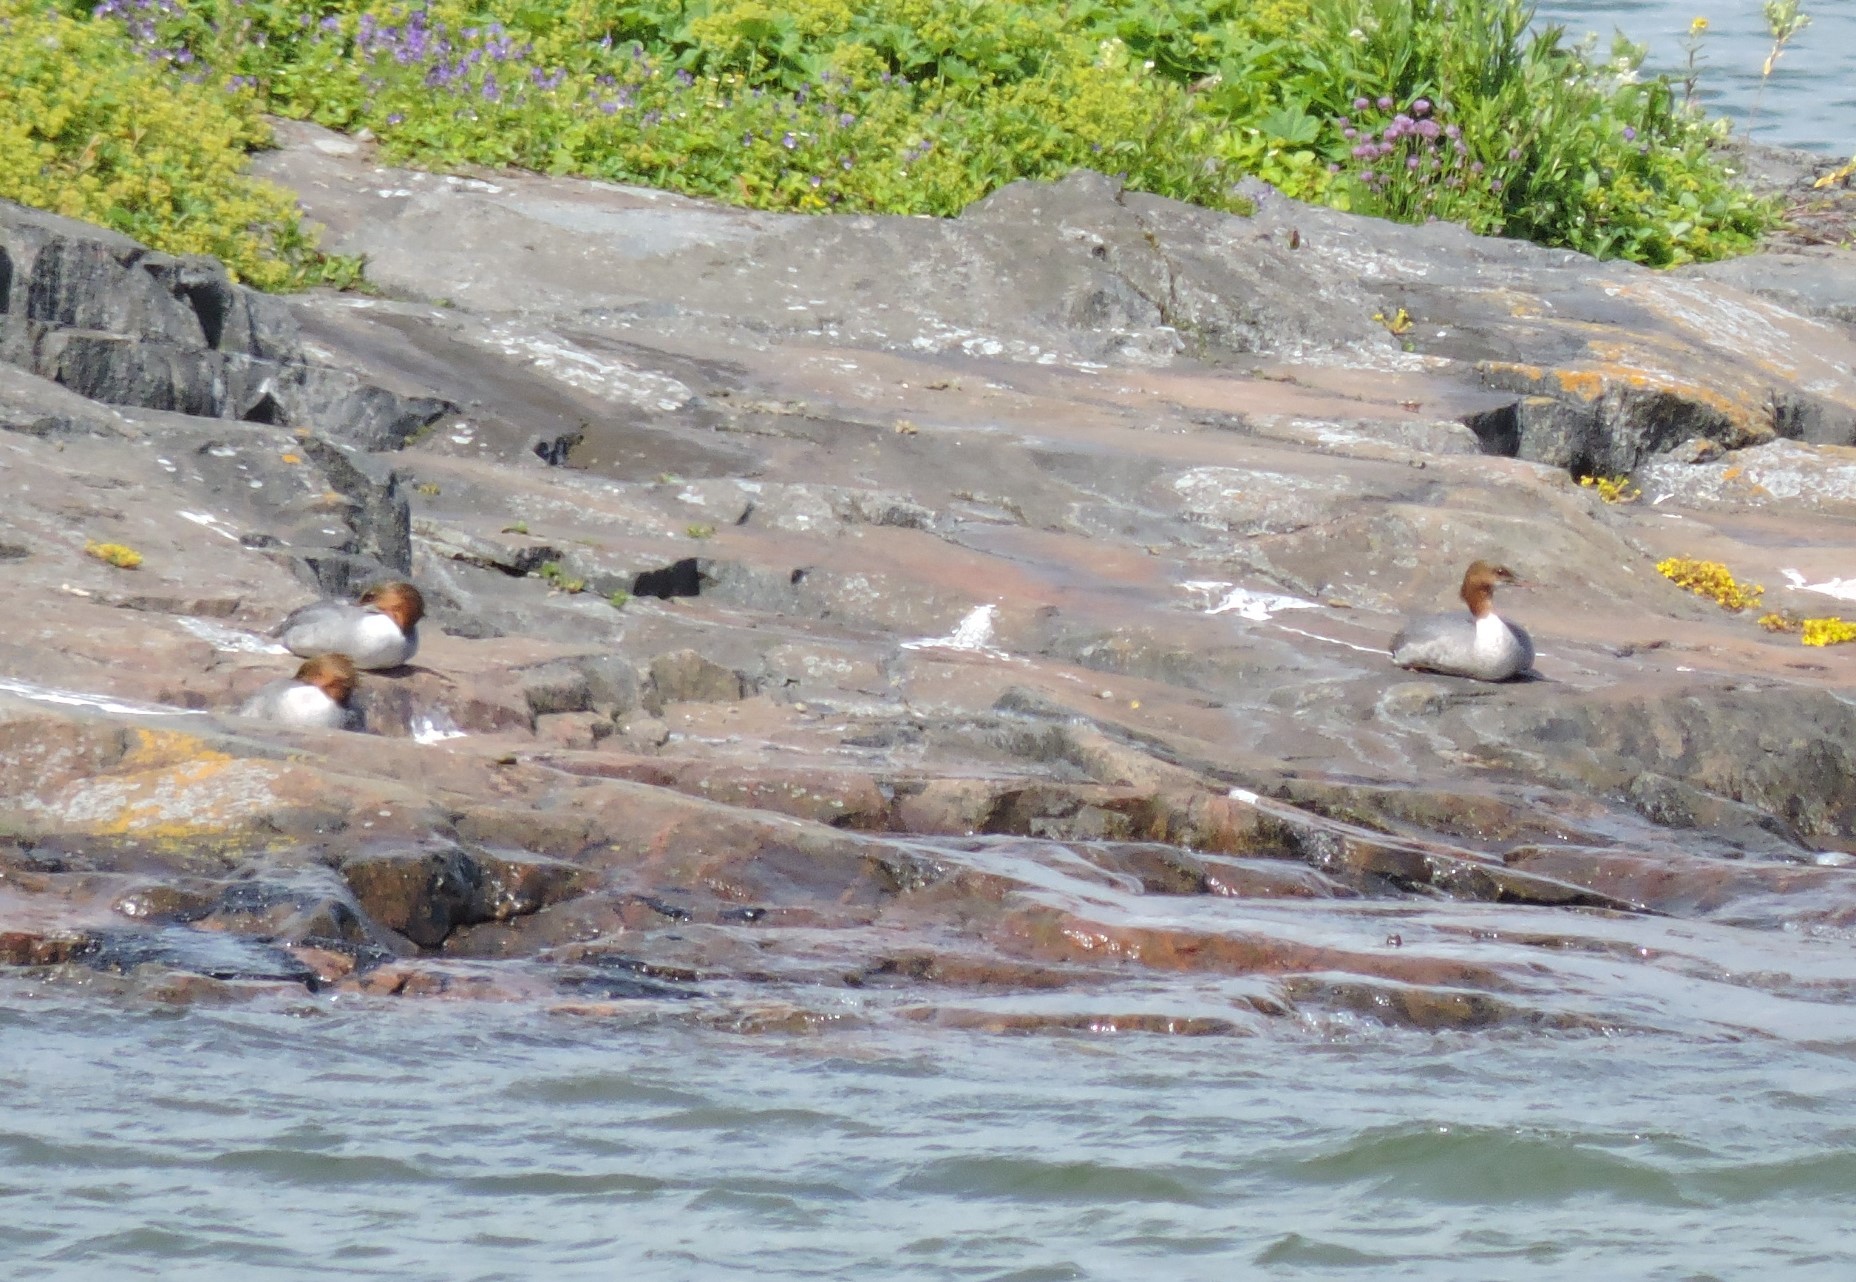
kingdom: Animalia
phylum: Chordata
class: Aves
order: Anseriformes
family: Anatidae
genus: Mergus
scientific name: Mergus merganser
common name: Common merganser
